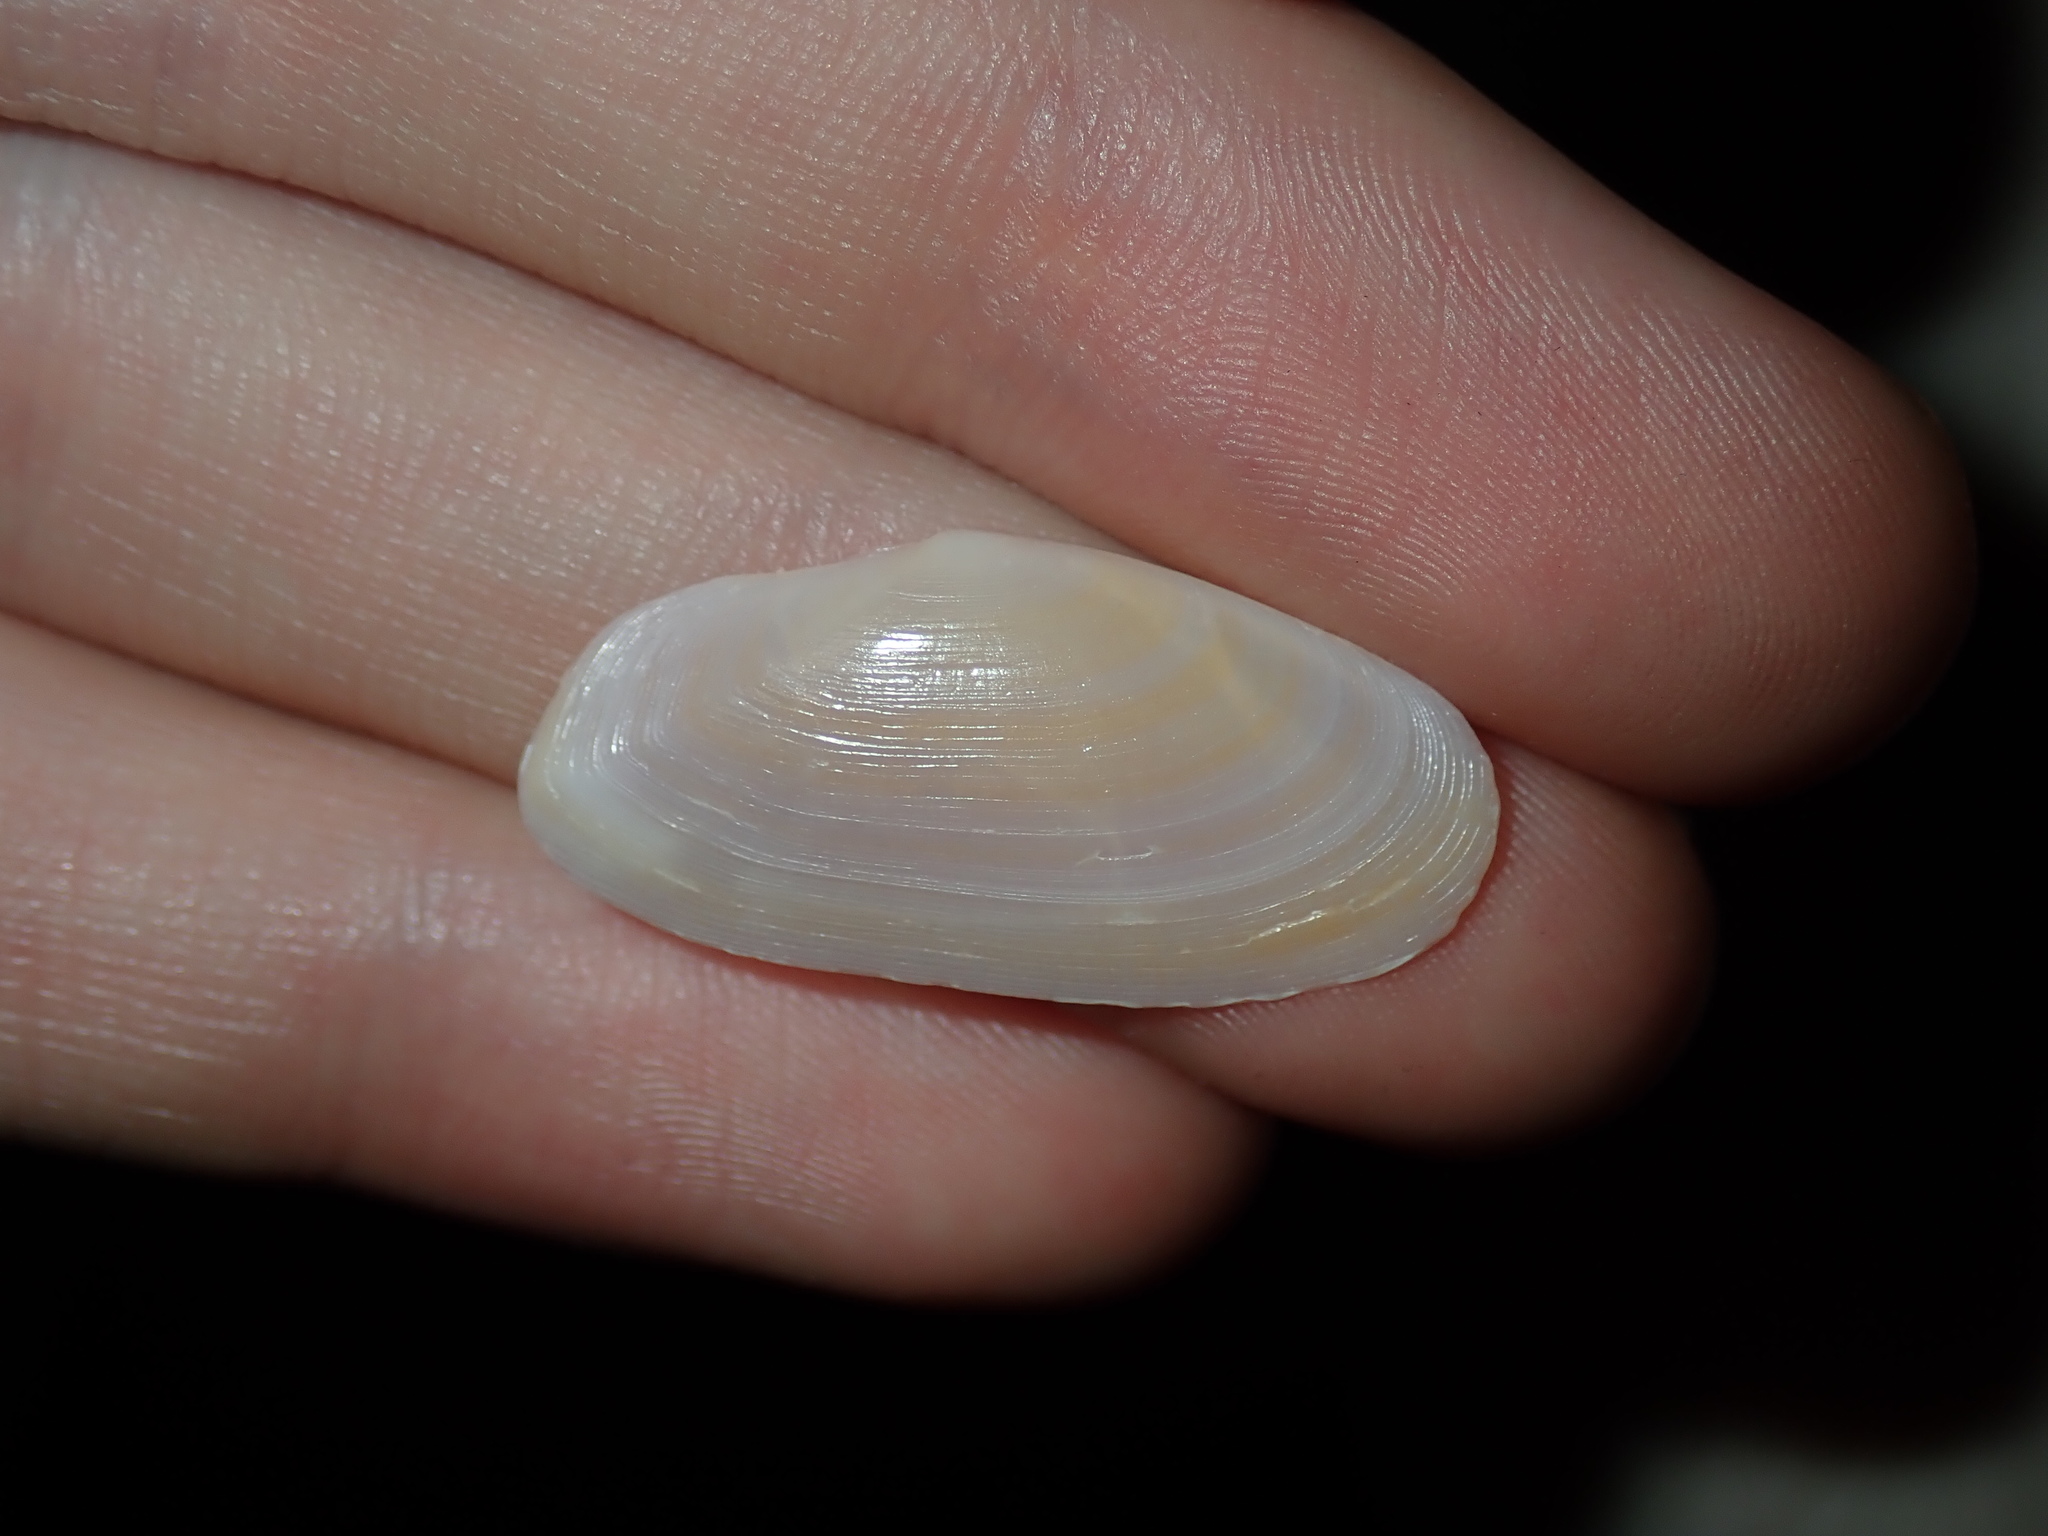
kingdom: Animalia
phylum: Mollusca
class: Bivalvia
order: Cardiida
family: Psammobiidae
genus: Gari
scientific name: Gari livida
